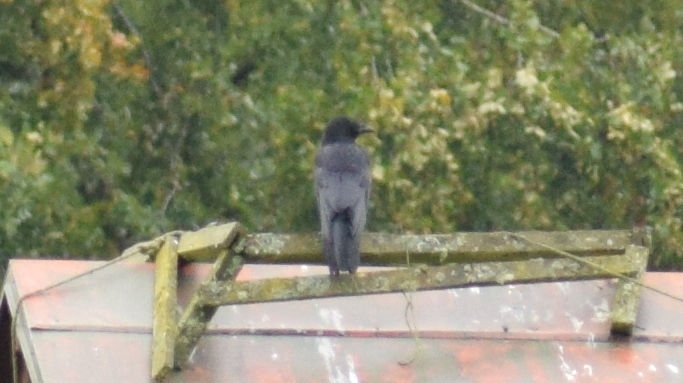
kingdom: Animalia
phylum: Chordata
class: Aves
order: Passeriformes
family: Corvidae
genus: Corvus
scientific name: Corvus corone
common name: Carrion crow
